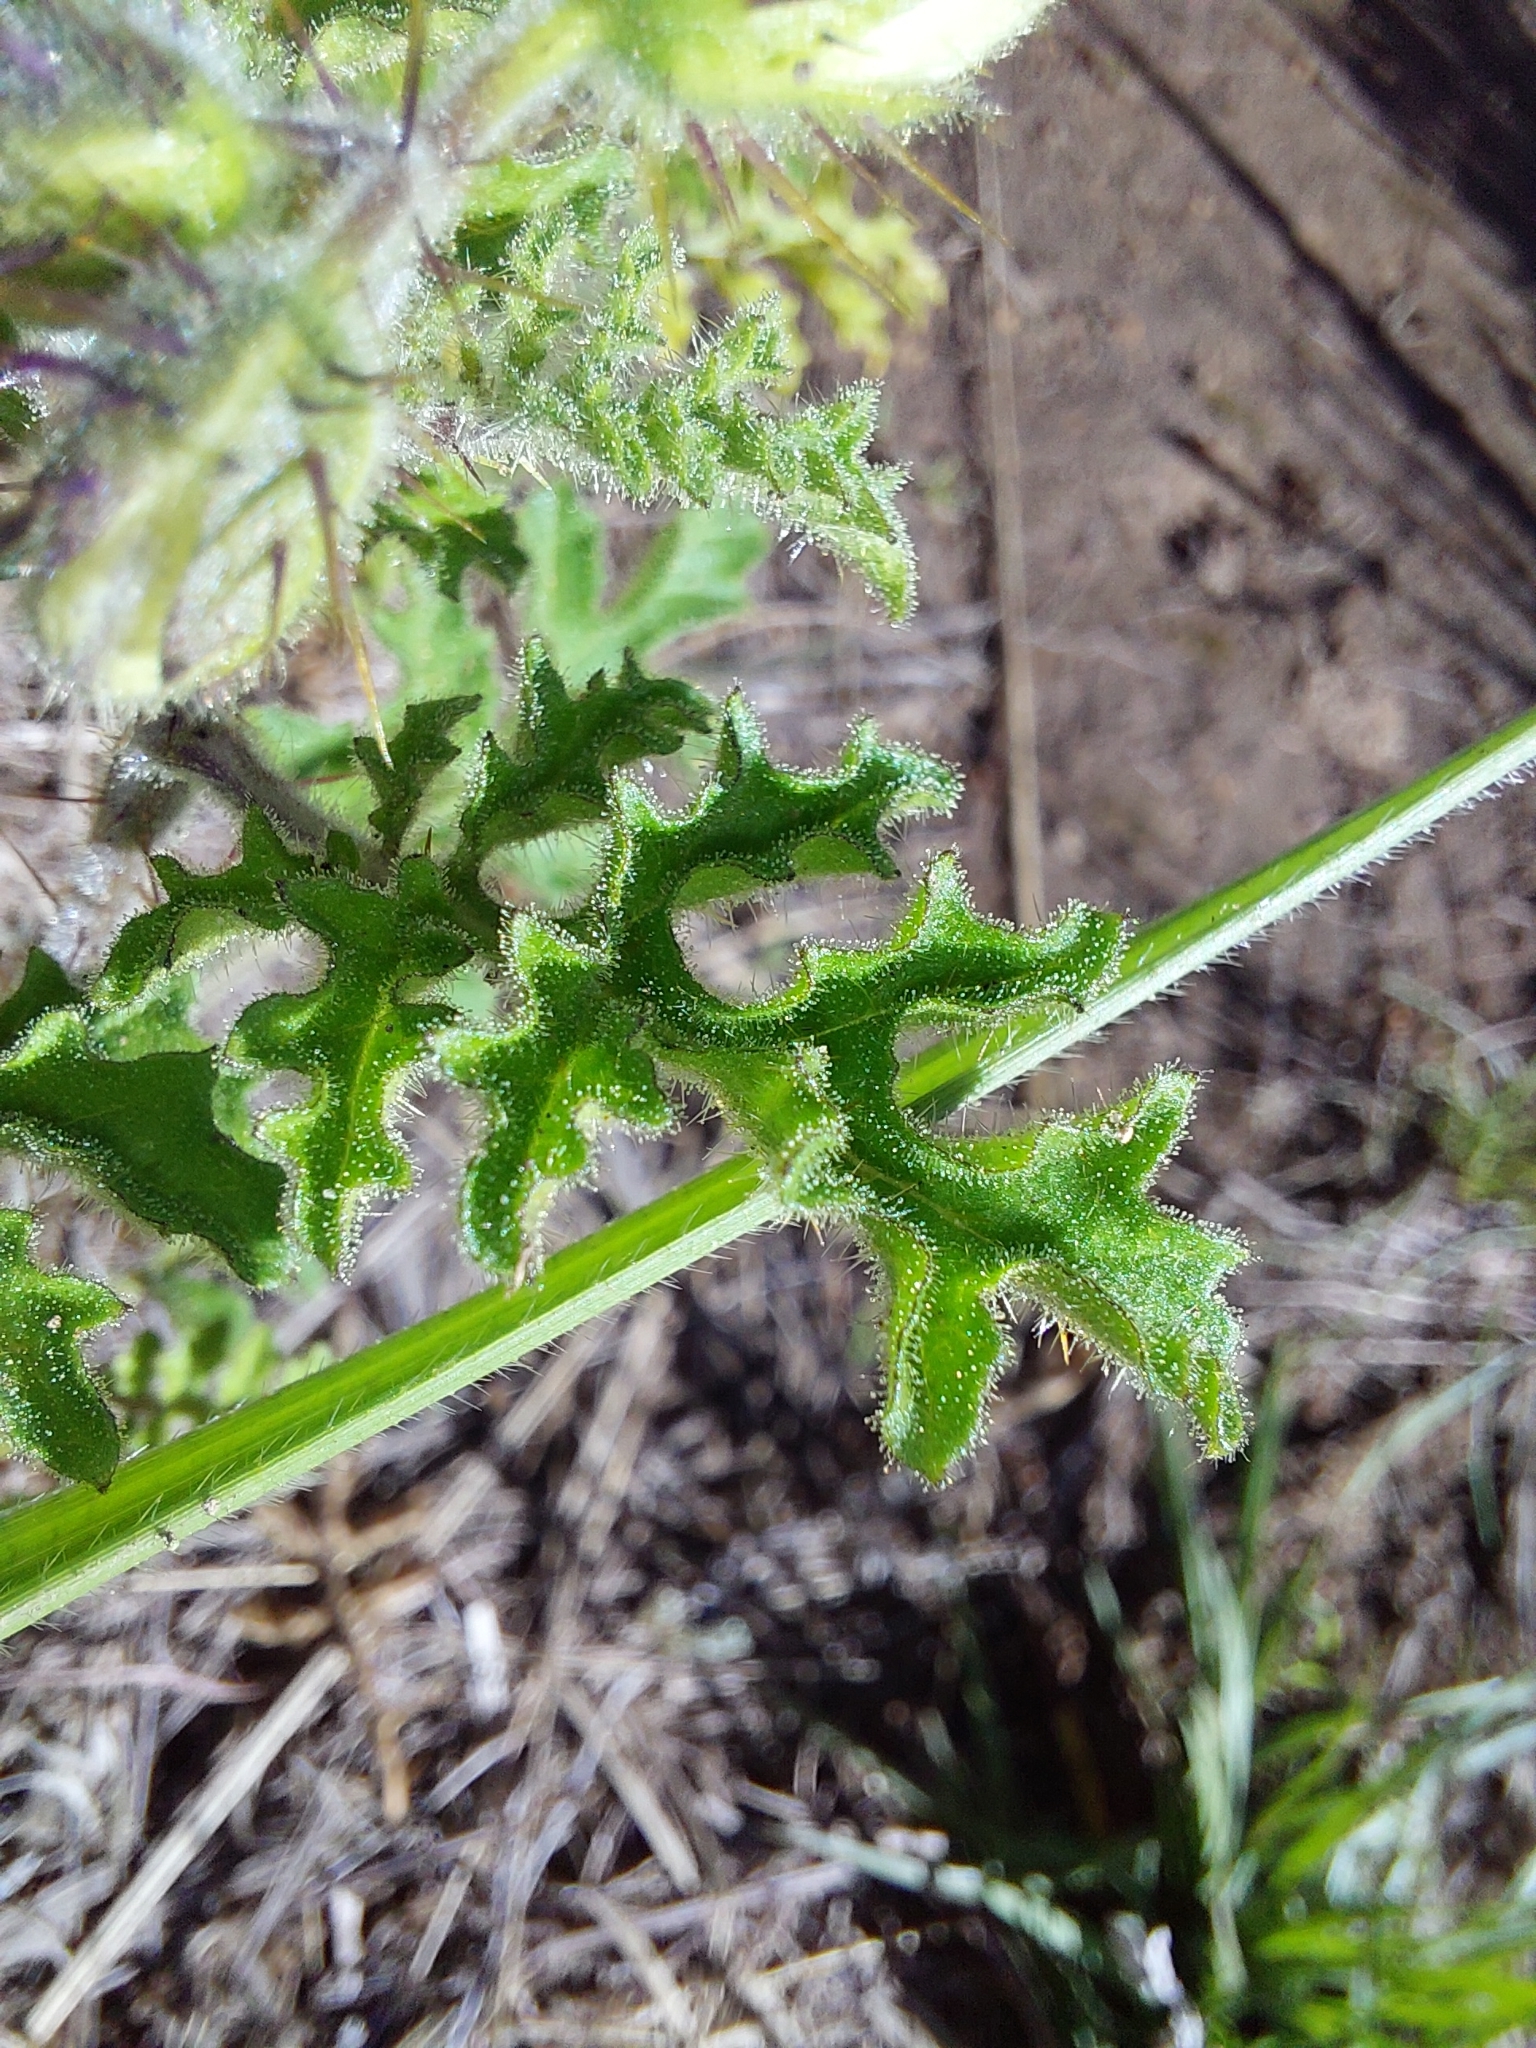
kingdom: Plantae
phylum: Tracheophyta
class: Magnoliopsida
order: Solanales
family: Solanaceae
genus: Solanum
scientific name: Solanum sisymbriifolium
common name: Red buffalo-bur
